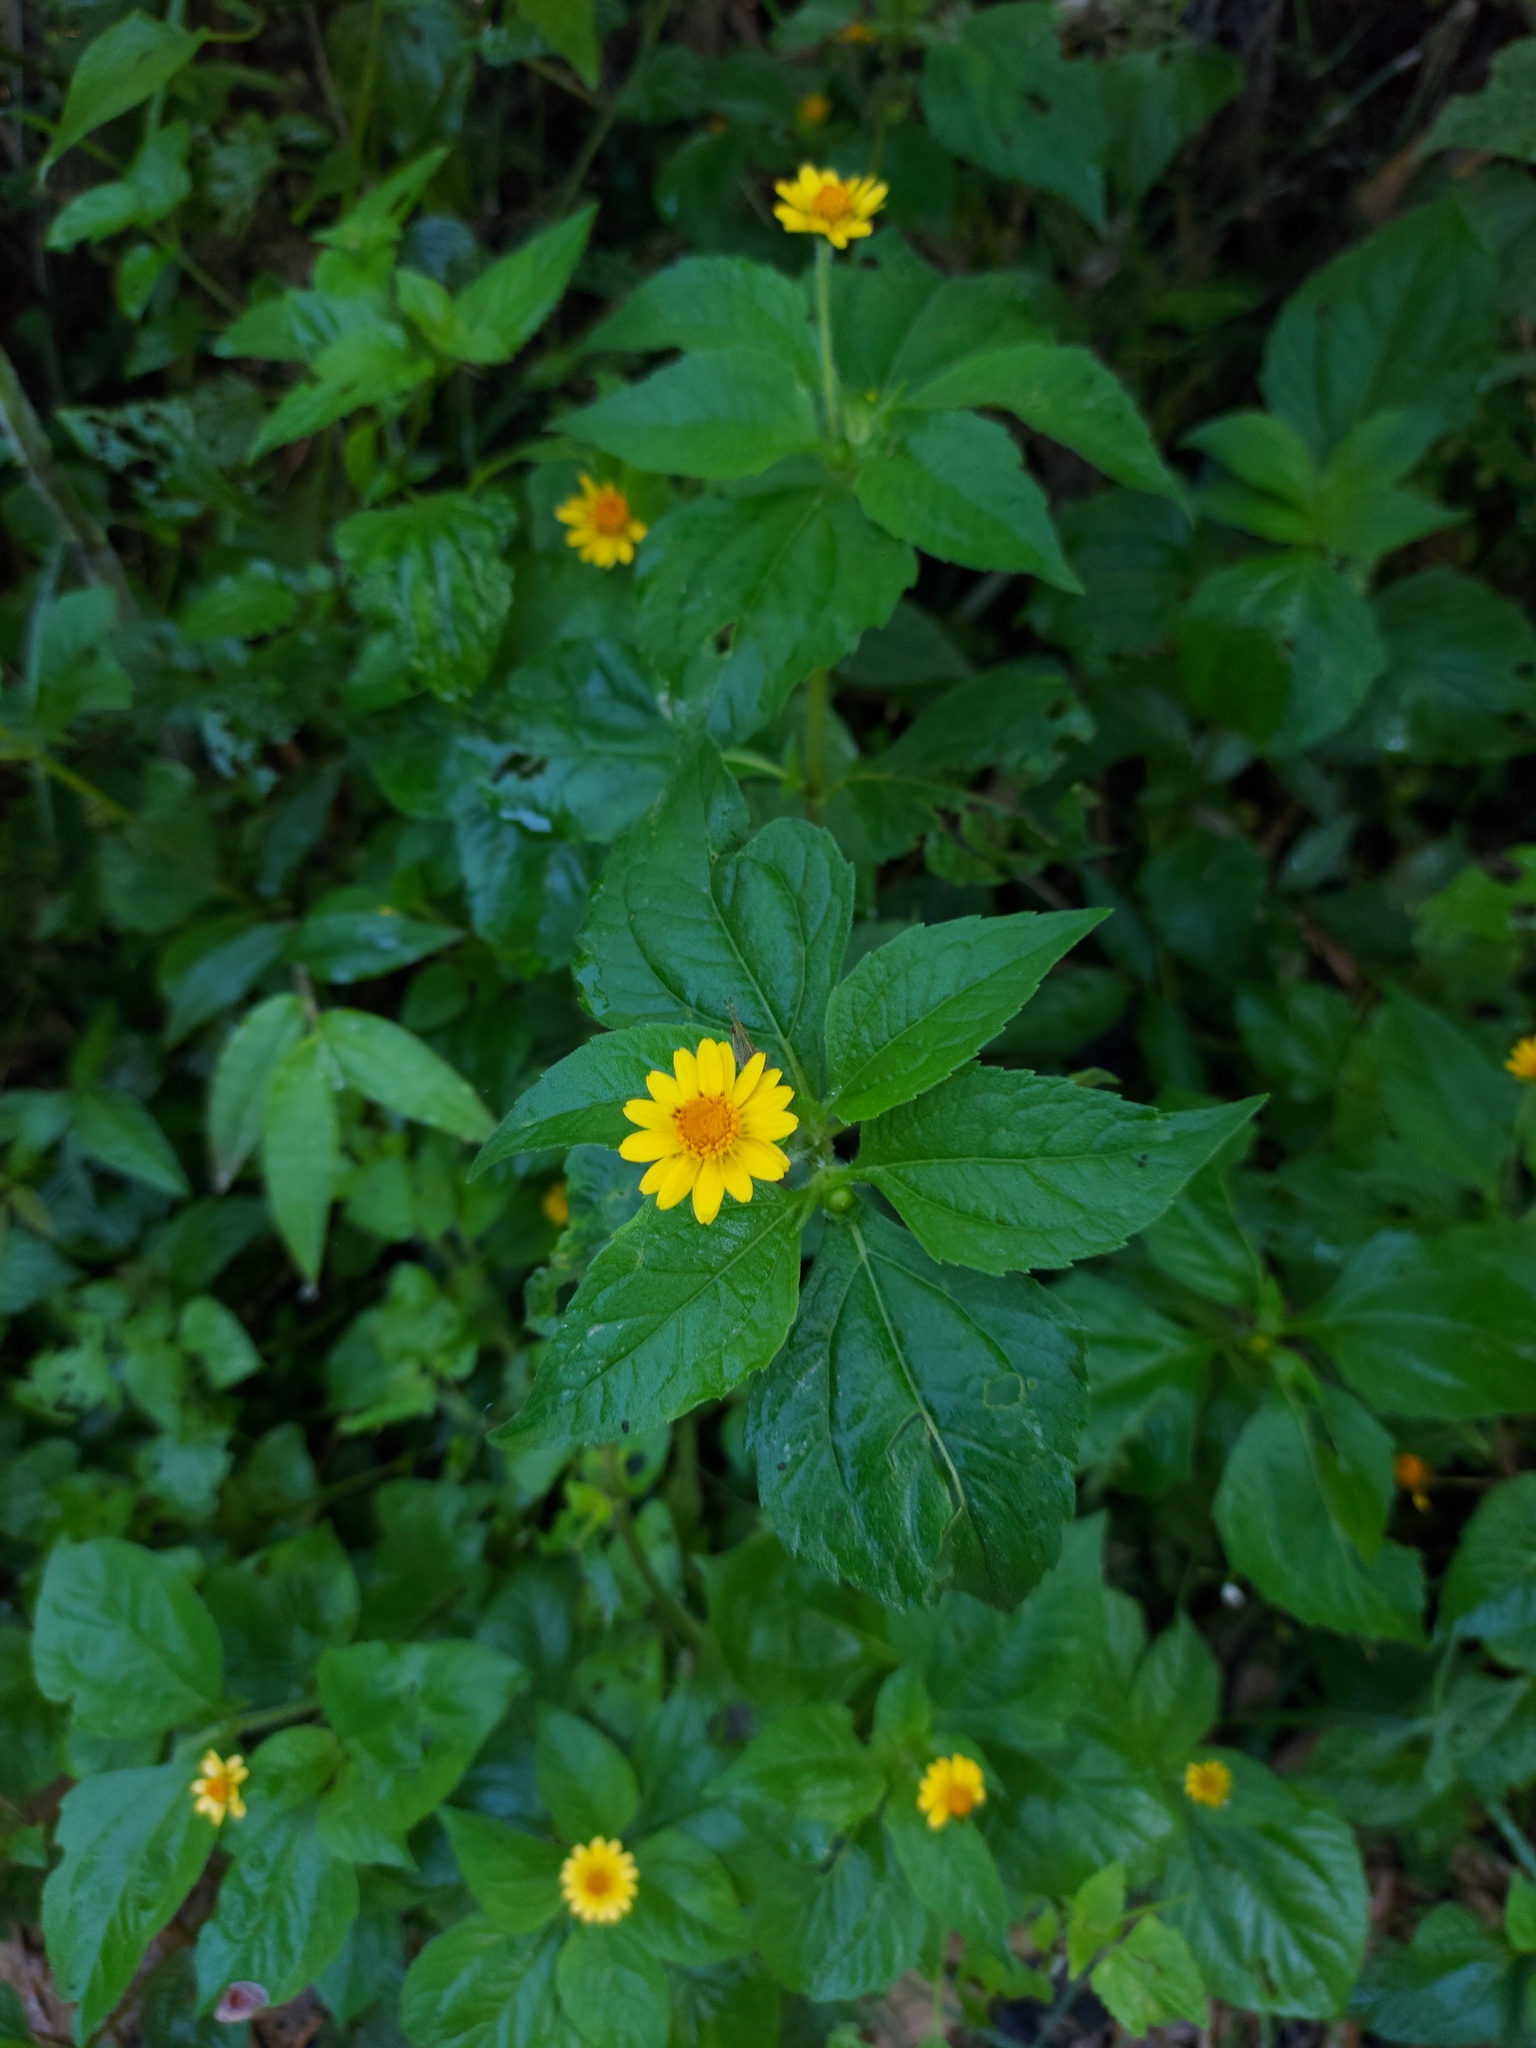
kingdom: Plantae
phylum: Tracheophyta
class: Magnoliopsida
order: Asterales
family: Asteraceae
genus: Melampodium
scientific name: Melampodium divaricatum
